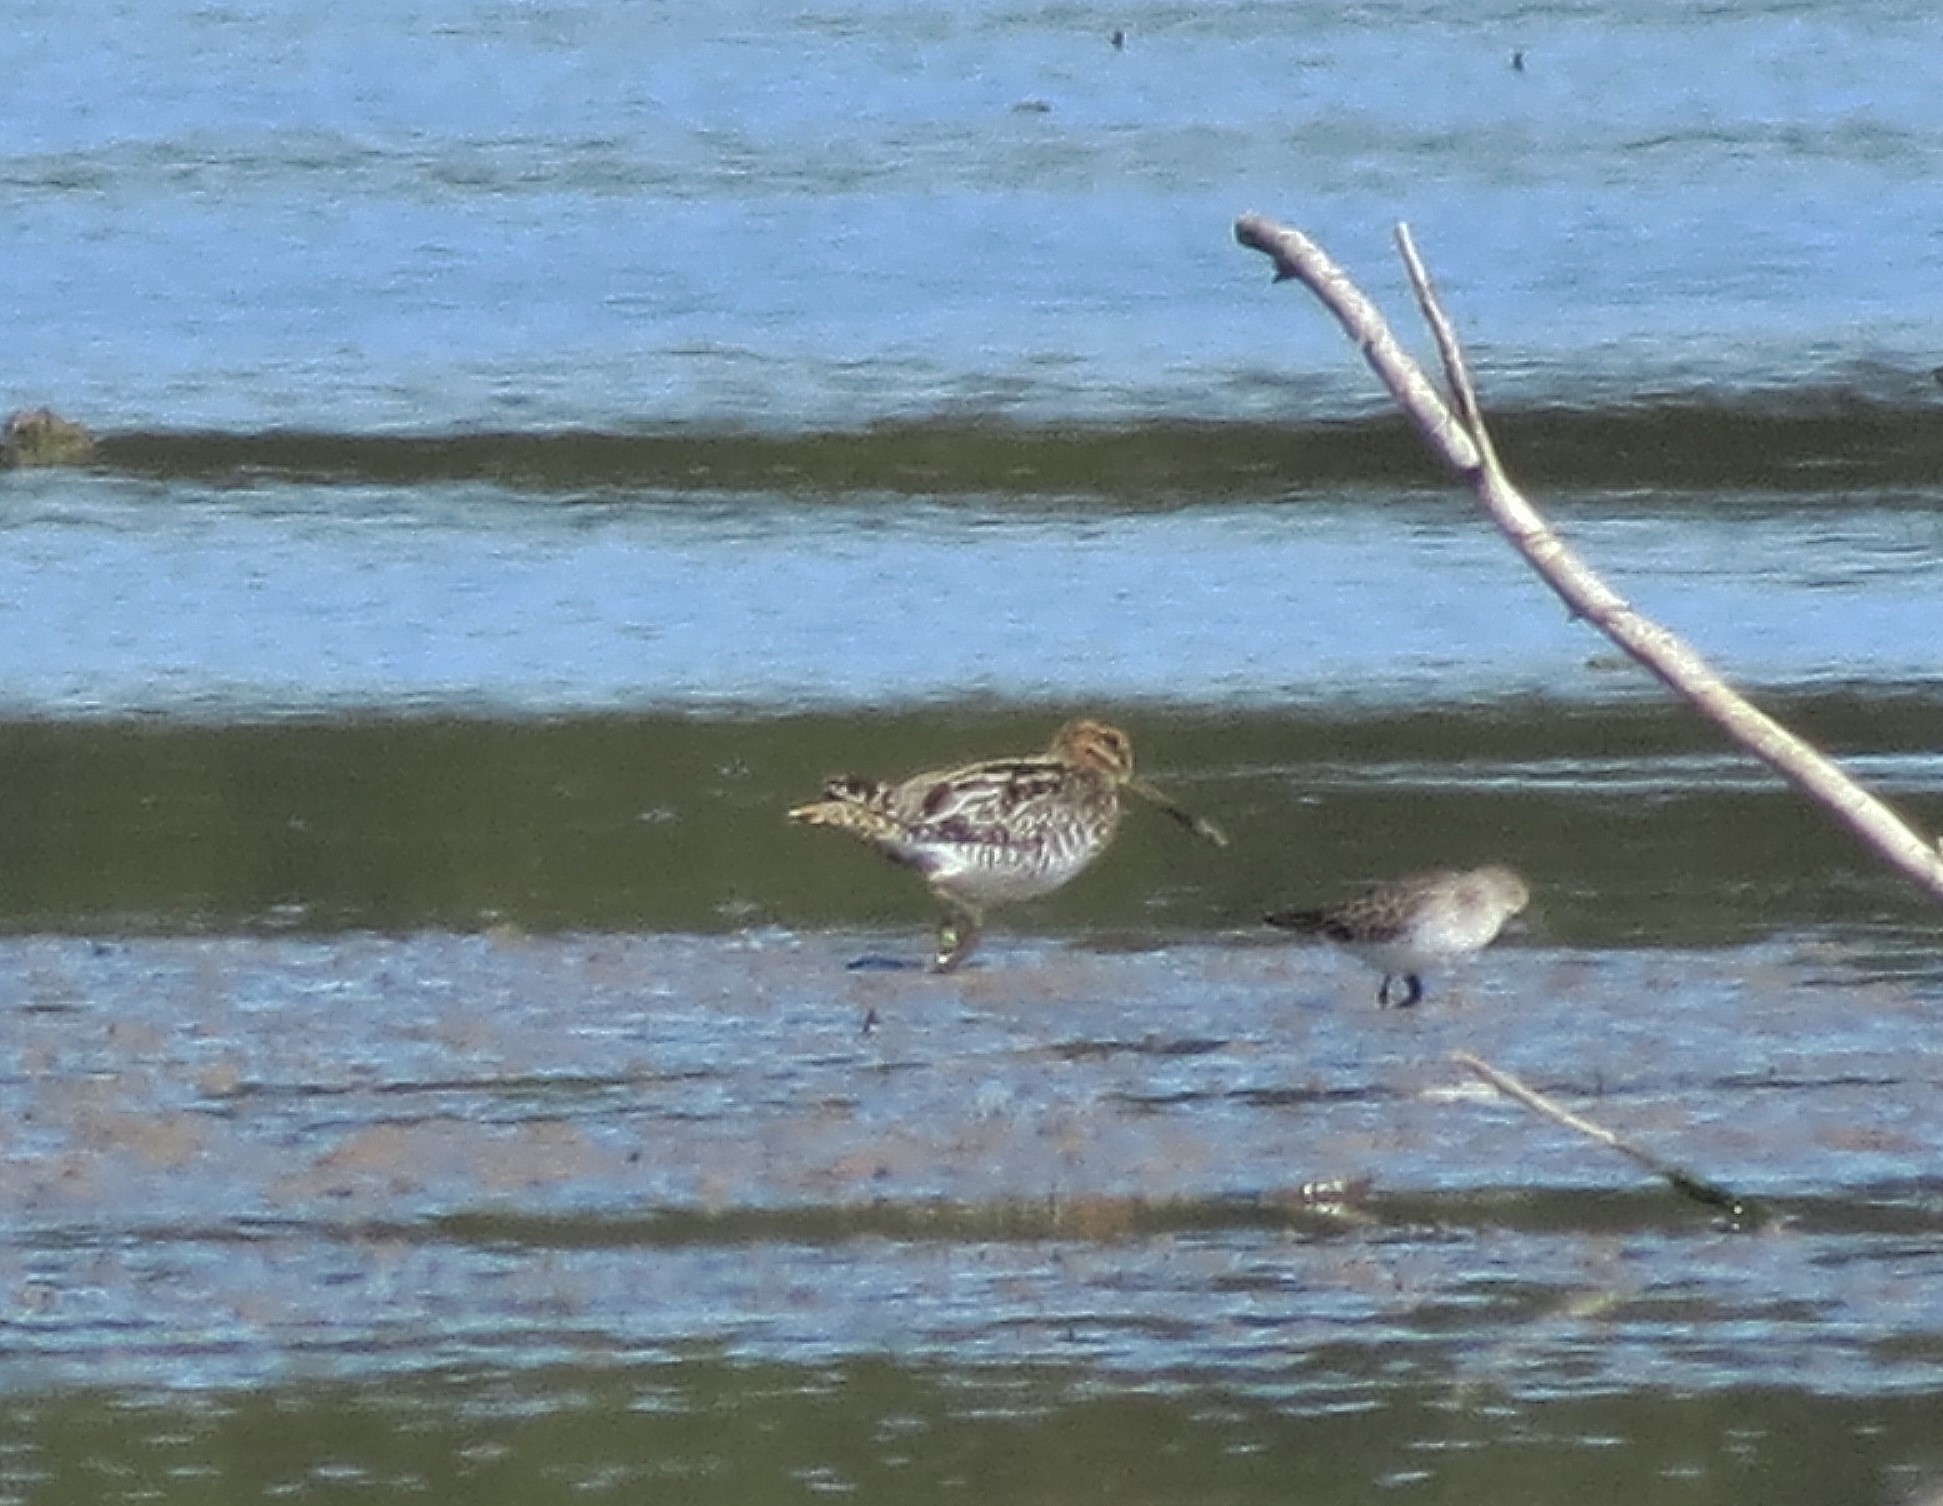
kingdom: Animalia
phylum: Chordata
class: Aves
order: Charadriiformes
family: Scolopacidae
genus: Gallinago
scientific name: Gallinago delicata
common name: Wilson's snipe
